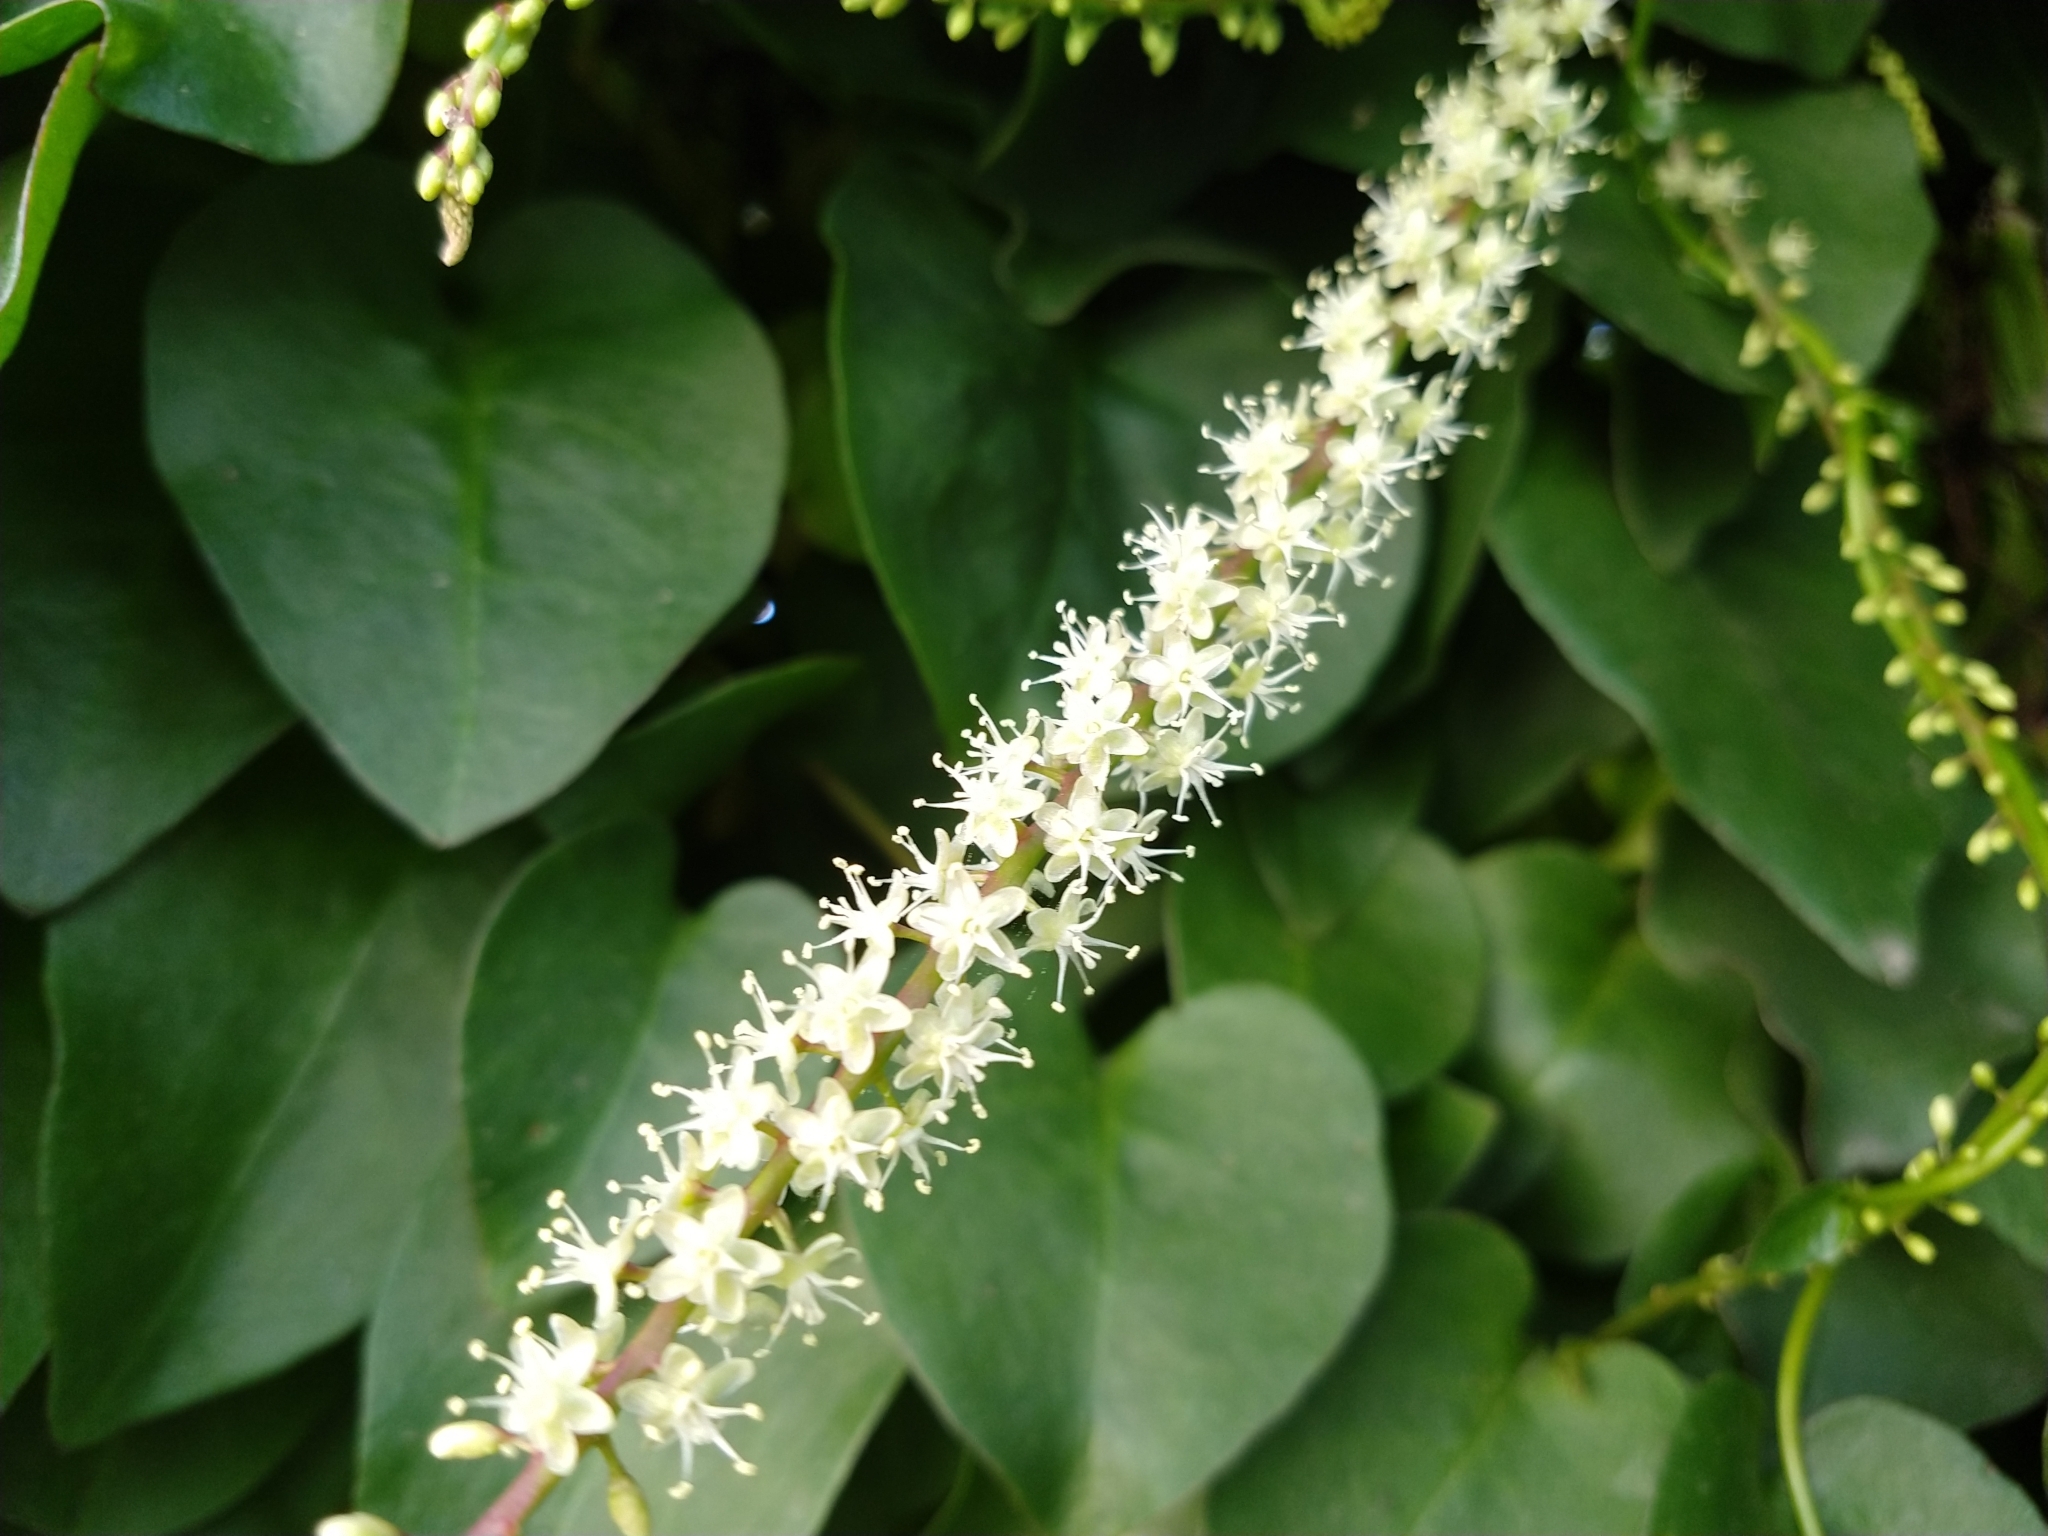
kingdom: Plantae
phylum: Tracheophyta
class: Magnoliopsida
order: Caryophyllales
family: Basellaceae
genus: Anredera
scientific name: Anredera cordifolia
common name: Heartleaf madeiravine
